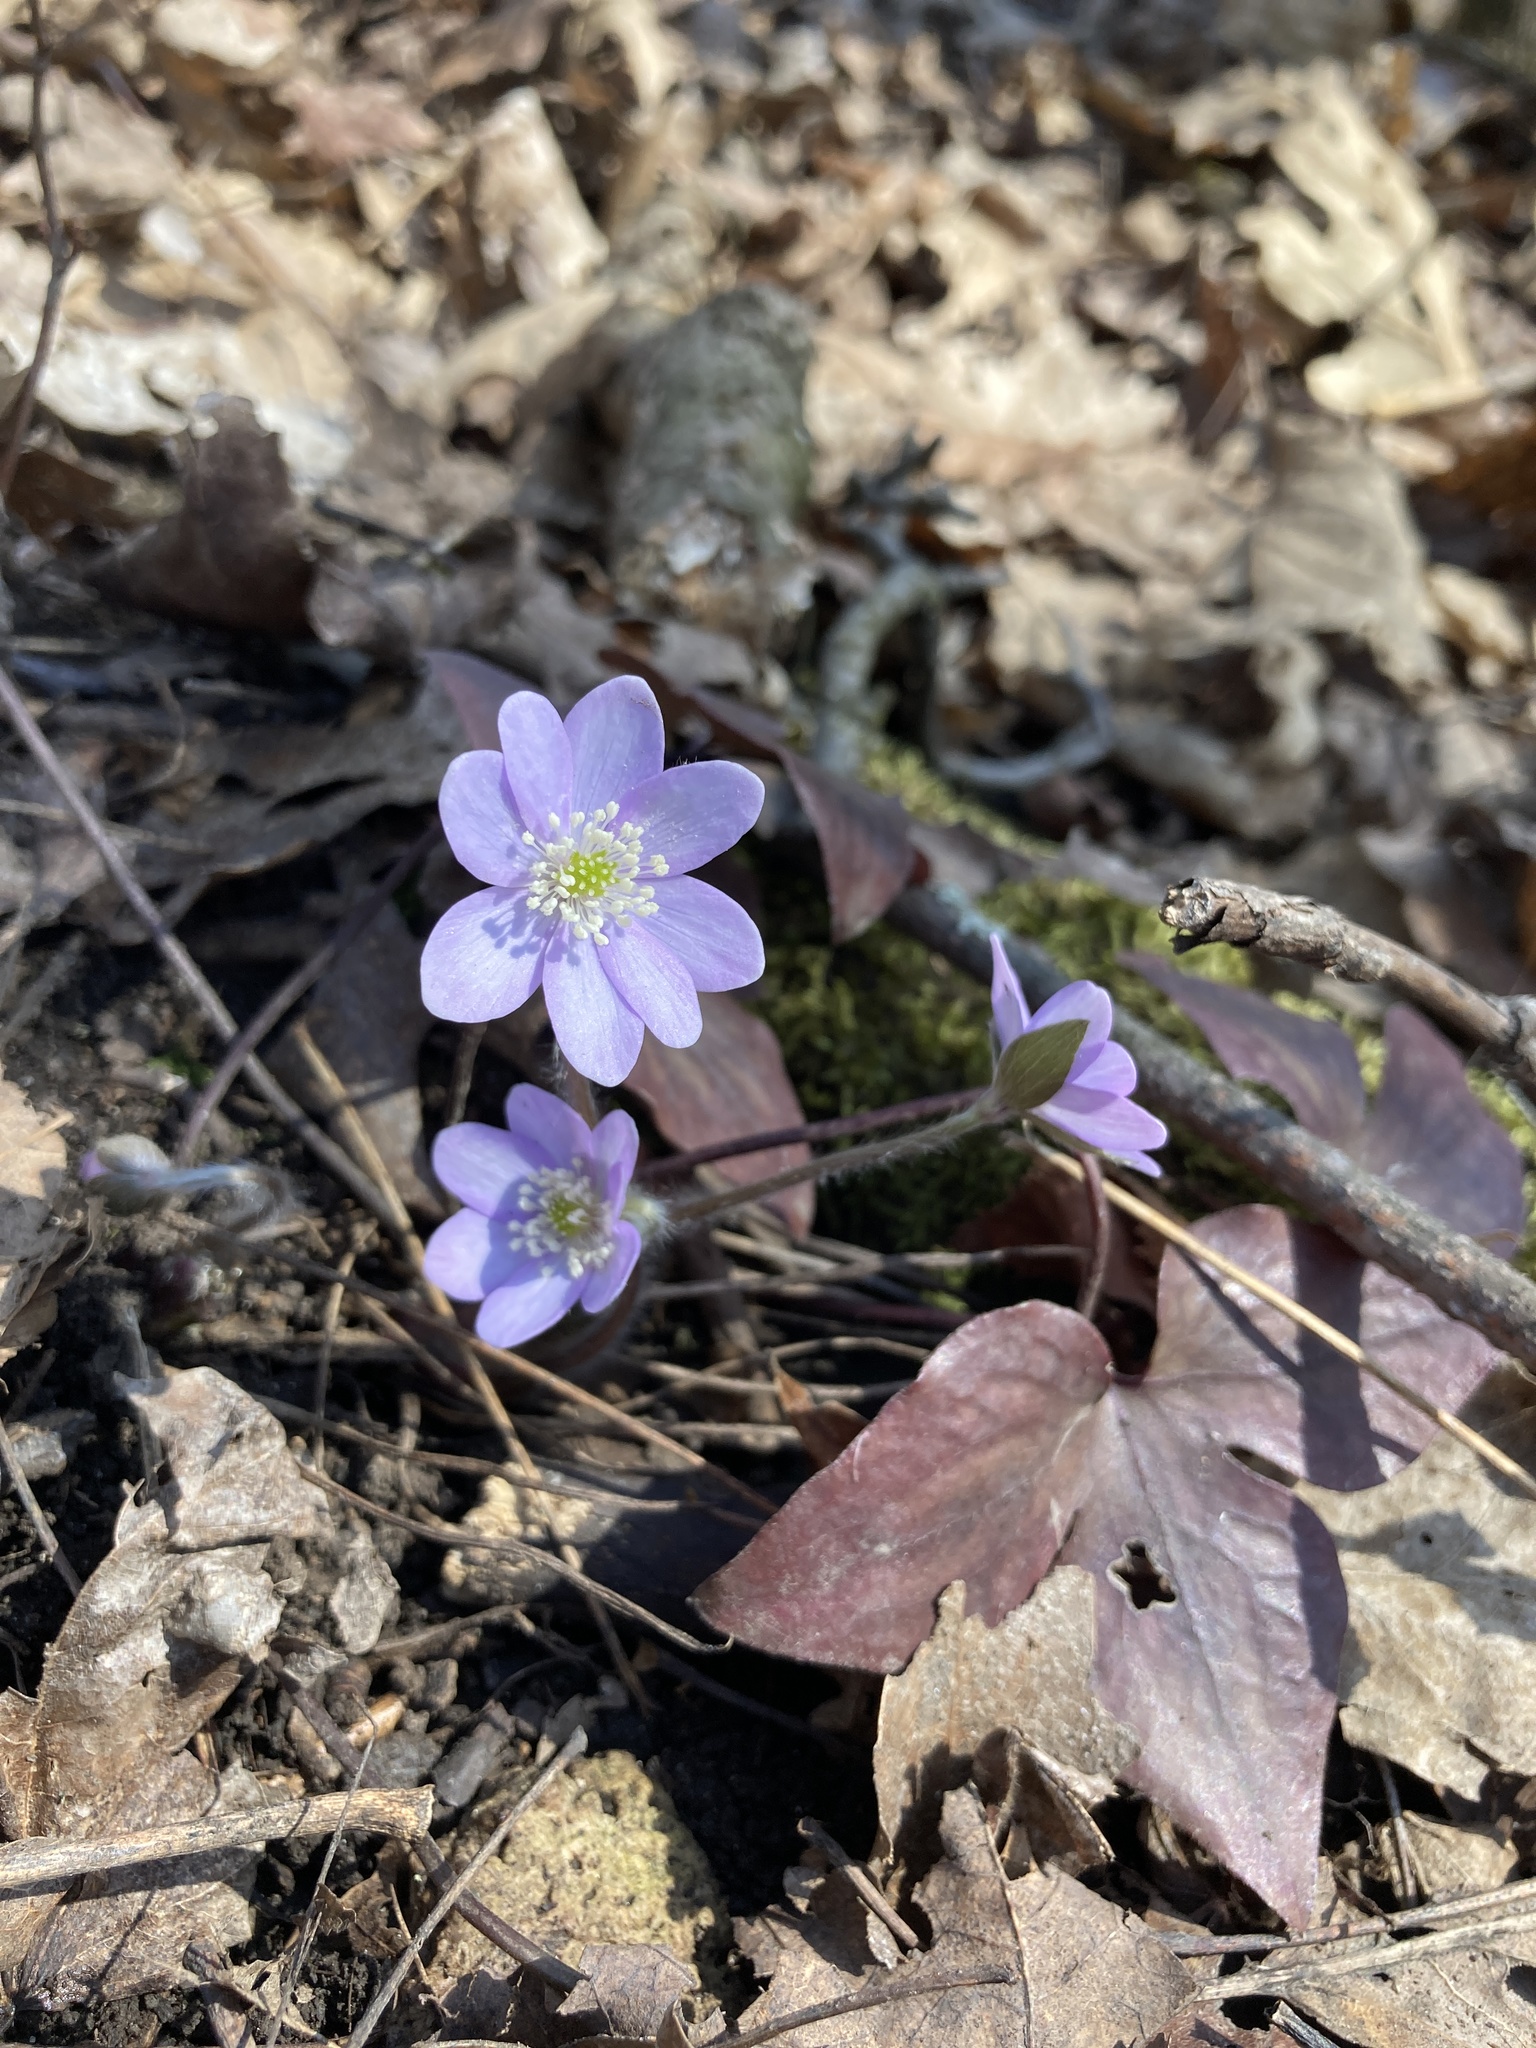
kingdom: Plantae
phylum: Tracheophyta
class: Magnoliopsida
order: Ranunculales
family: Ranunculaceae
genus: Hepatica
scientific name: Hepatica acutiloba
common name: Sharp-lobed hepatica
